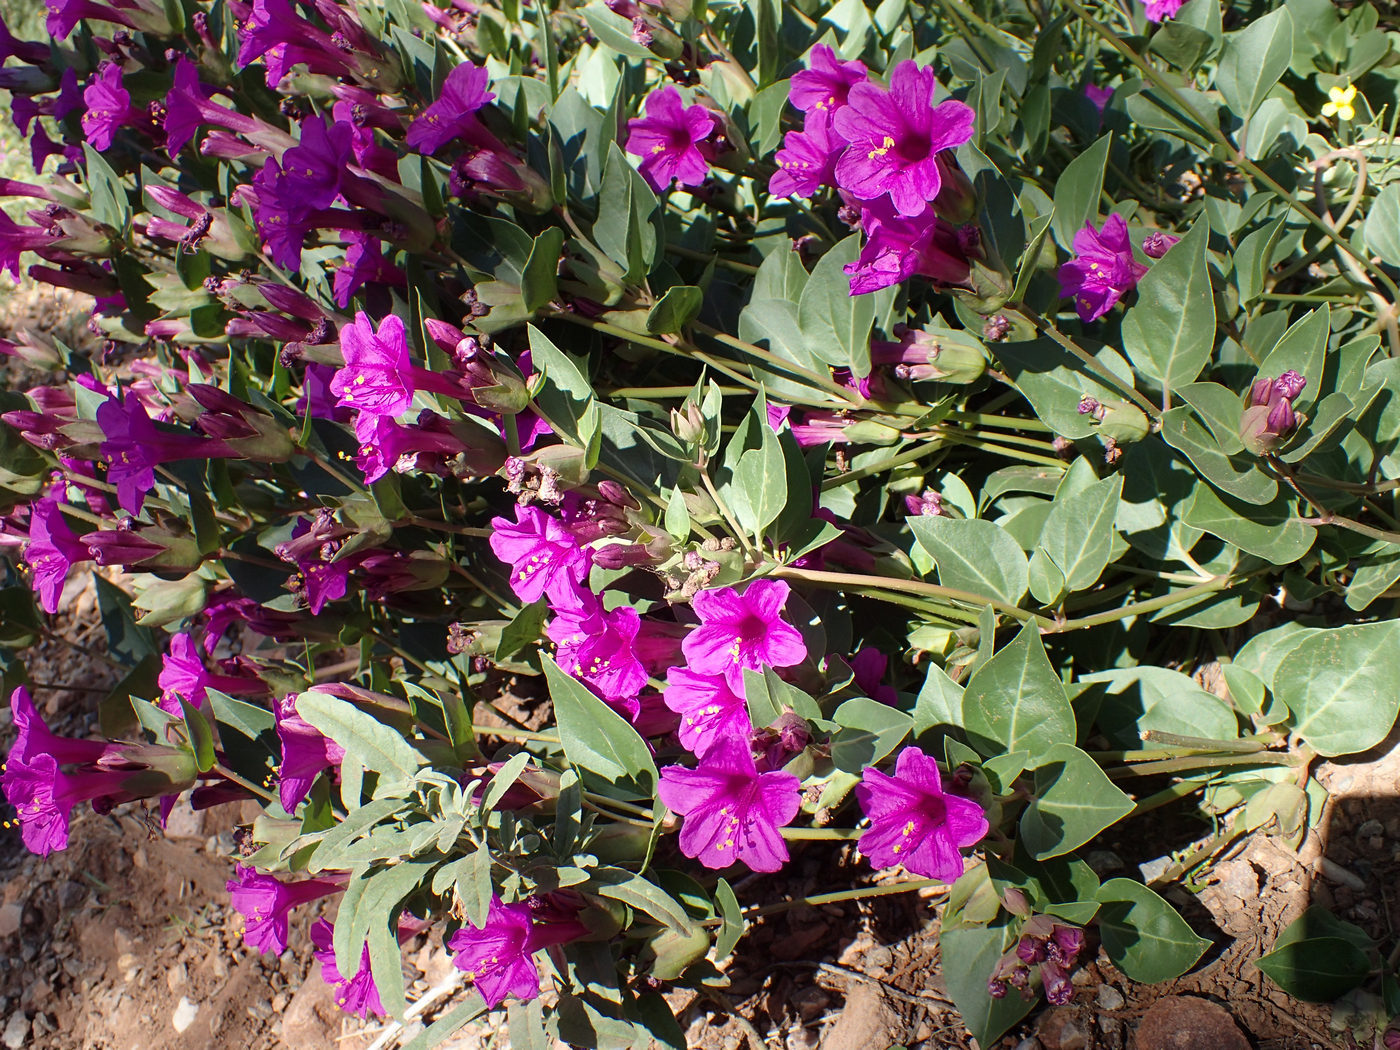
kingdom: Plantae
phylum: Tracheophyta
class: Magnoliopsida
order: Caryophyllales
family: Nyctaginaceae
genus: Mirabilis
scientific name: Mirabilis multiflora
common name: Froebel's four-o'clock
